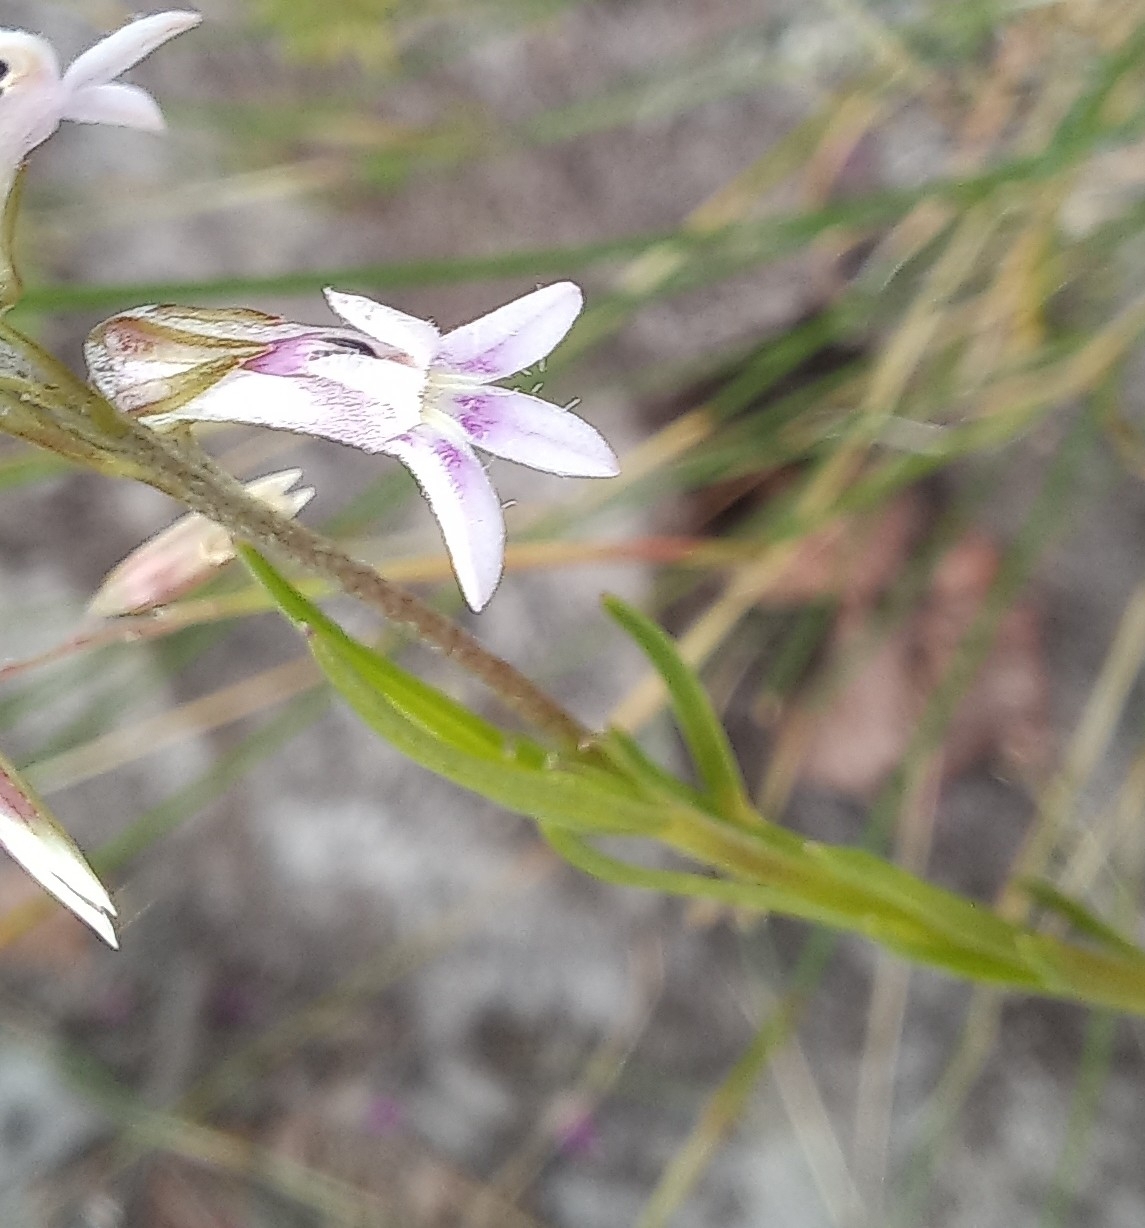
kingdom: Plantae
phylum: Tracheophyta
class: Magnoliopsida
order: Asterales
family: Campanulaceae
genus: Lobelia
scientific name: Lobelia pinifolia
